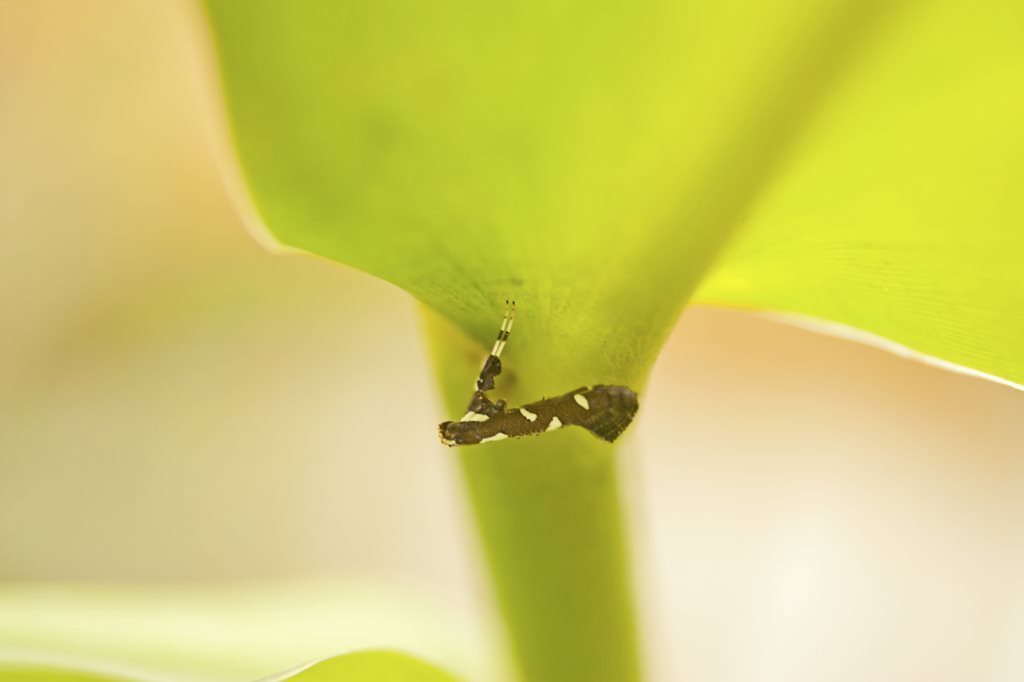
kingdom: Animalia
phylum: Arthropoda
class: Insecta
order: Lepidoptera
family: Gracillariidae
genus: Caloptilia
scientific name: Caloptilia adelosema
